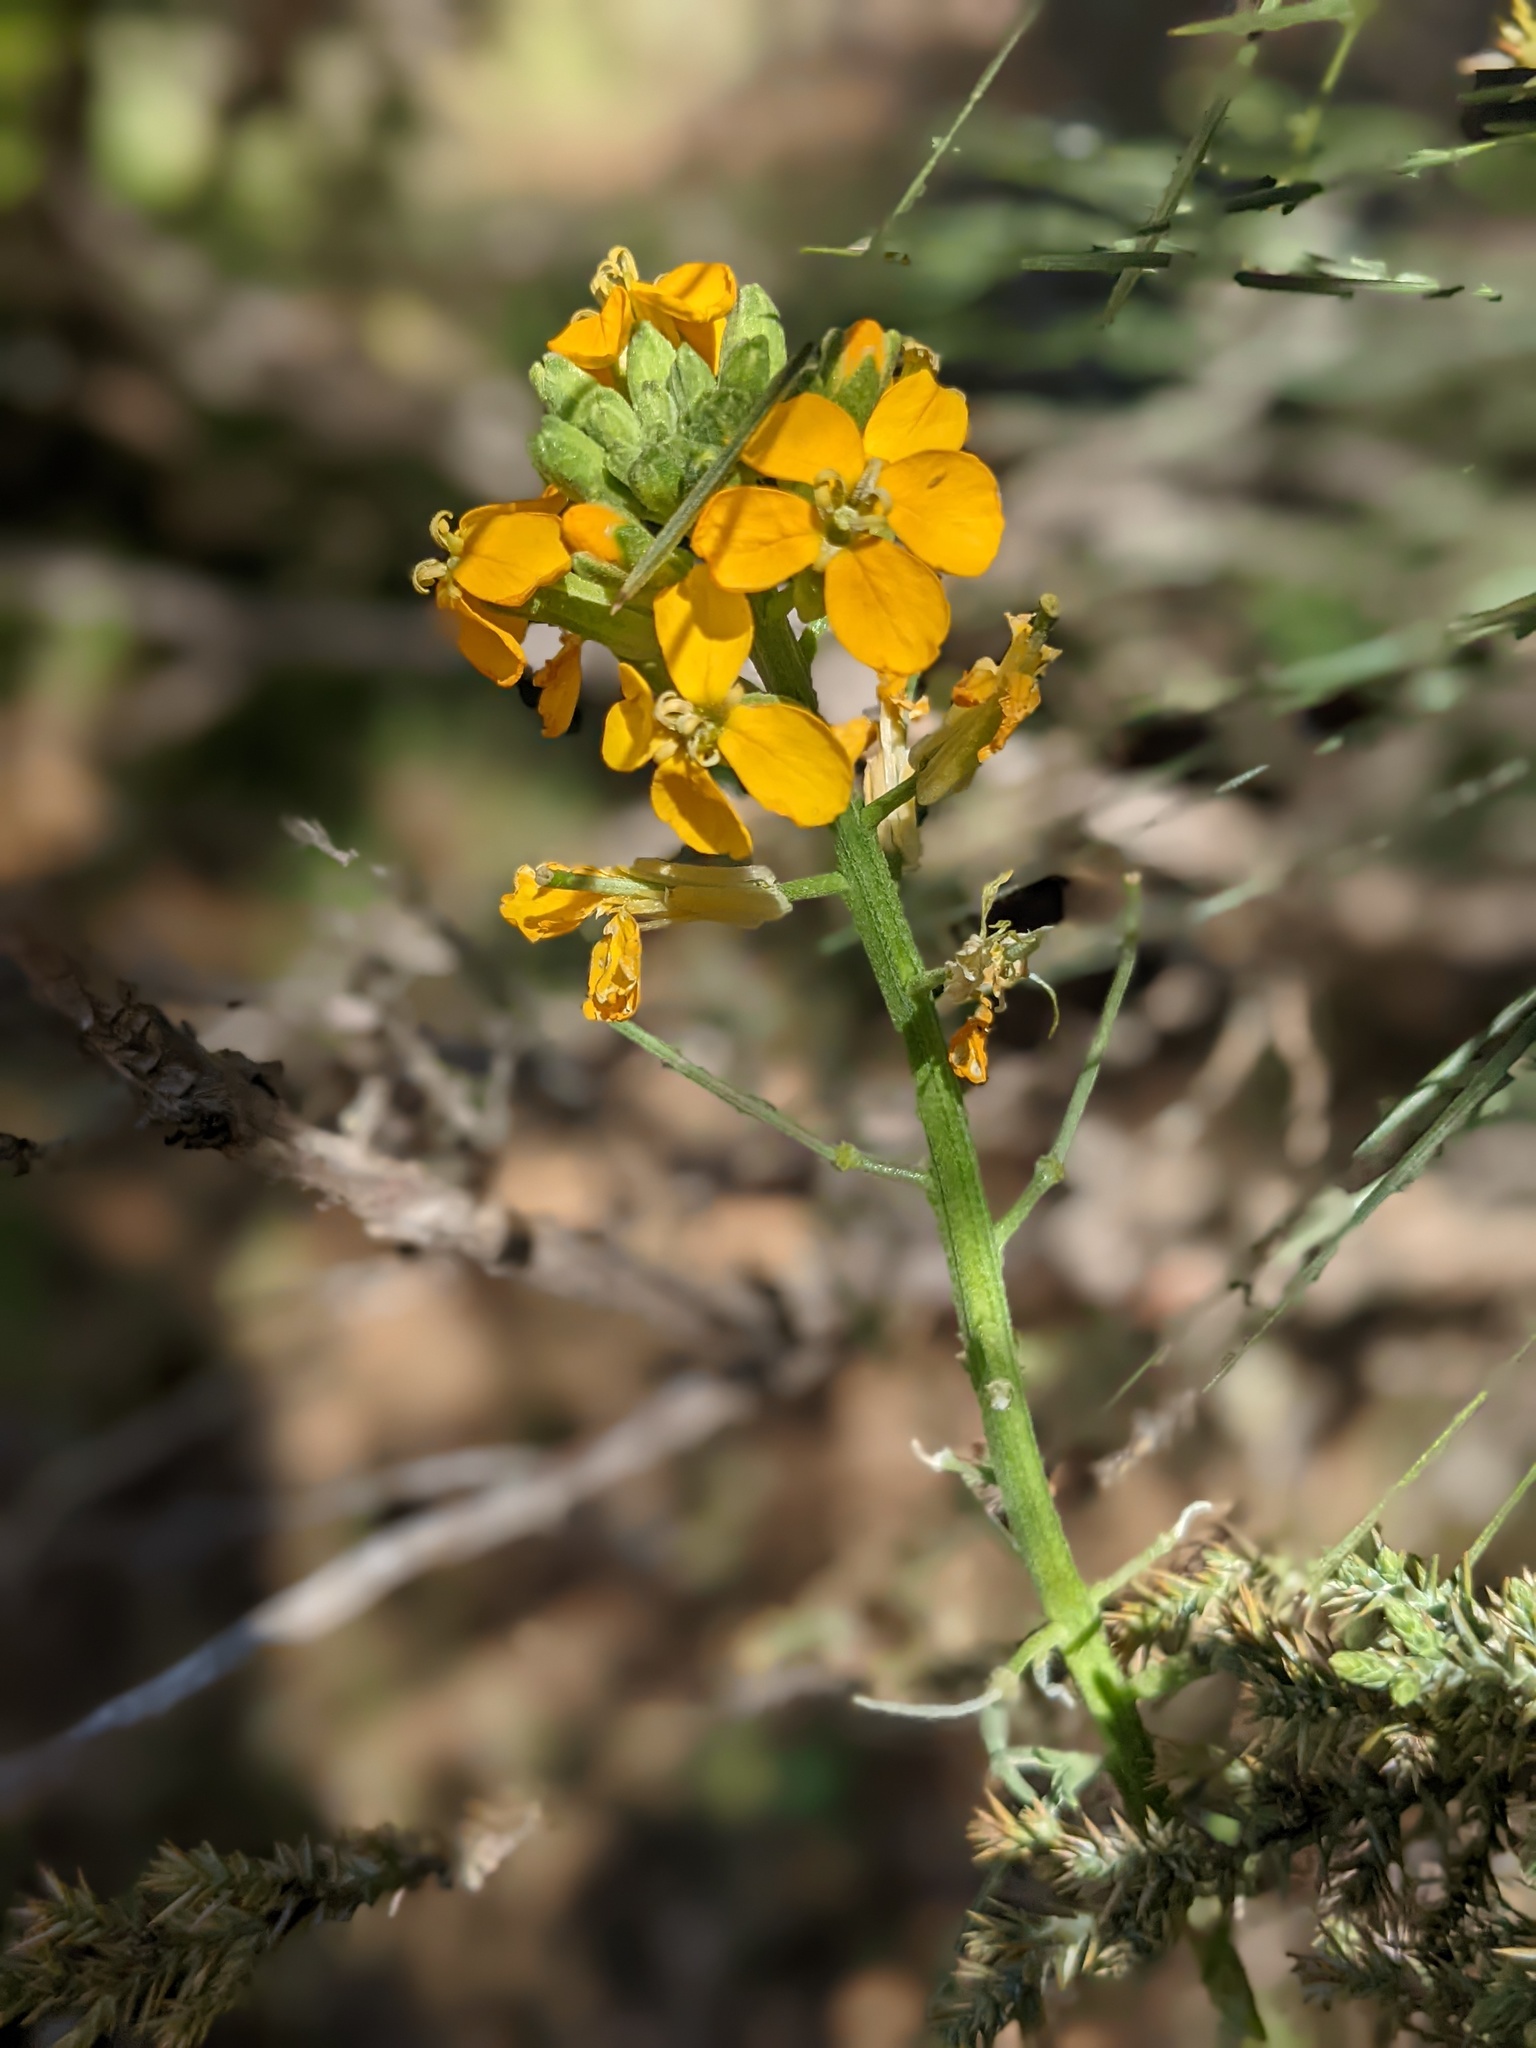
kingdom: Plantae
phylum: Tracheophyta
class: Magnoliopsida
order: Brassicales
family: Brassicaceae
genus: Erysimum
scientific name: Erysimum capitatum
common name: Western wallflower
